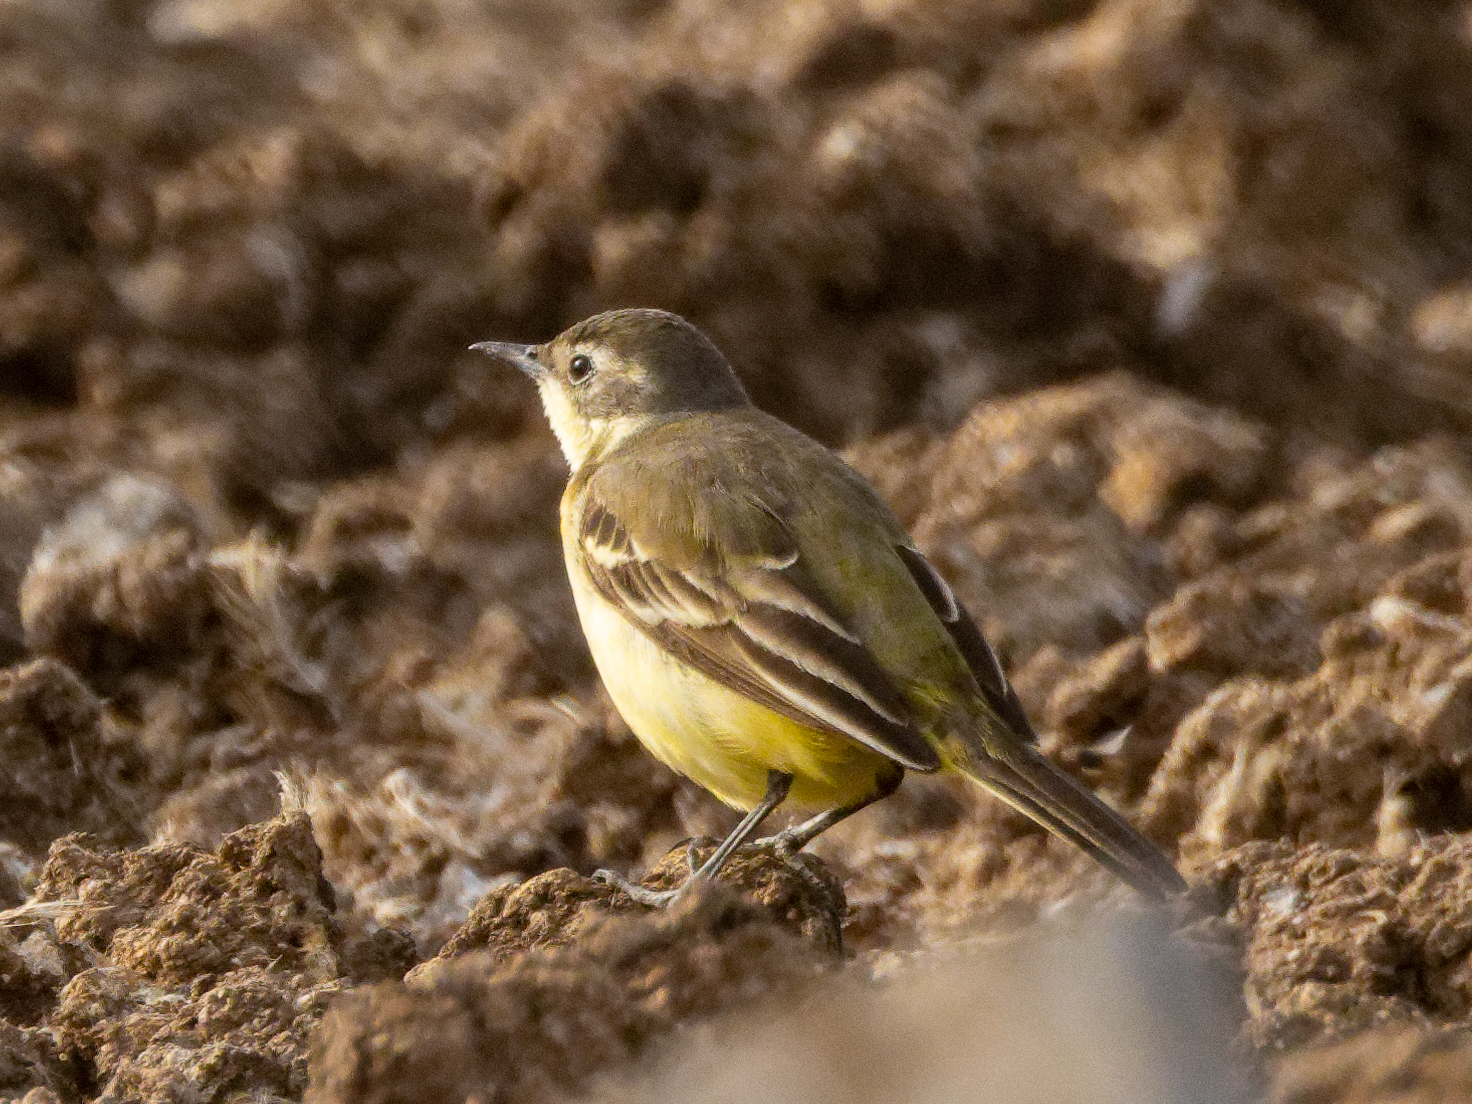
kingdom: Animalia
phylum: Chordata
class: Aves
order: Passeriformes
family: Motacillidae
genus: Motacilla
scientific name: Motacilla flava
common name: Western yellow wagtail
